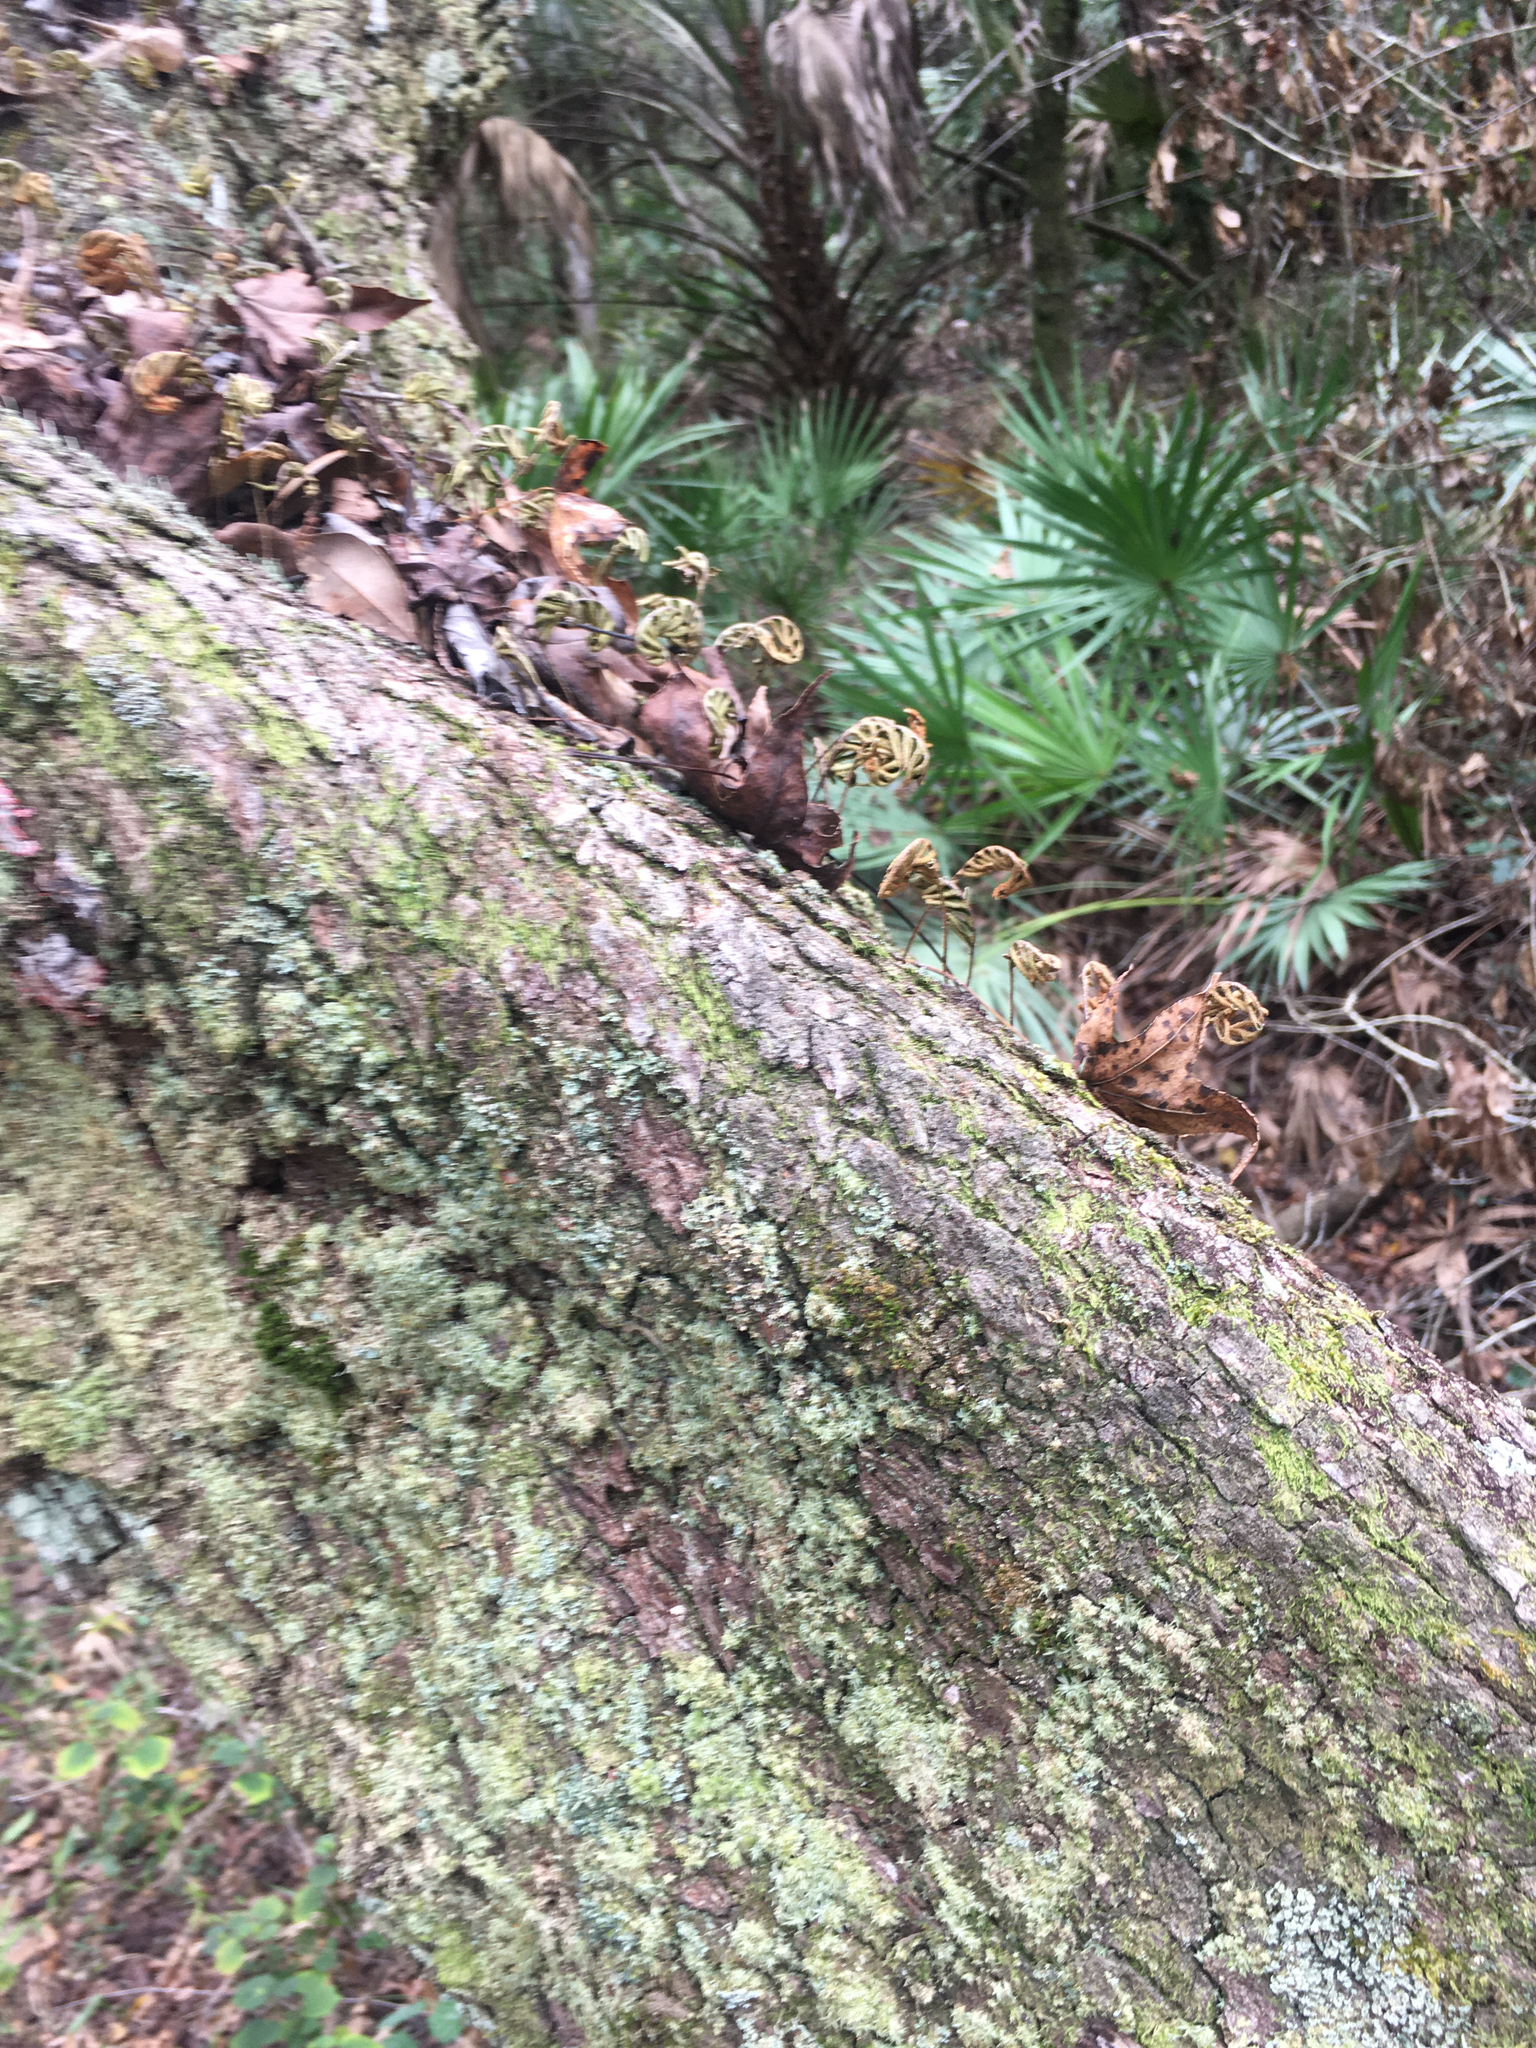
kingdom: Plantae
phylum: Tracheophyta
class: Polypodiopsida
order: Polypodiales
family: Polypodiaceae
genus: Pleopeltis
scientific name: Pleopeltis michauxiana
